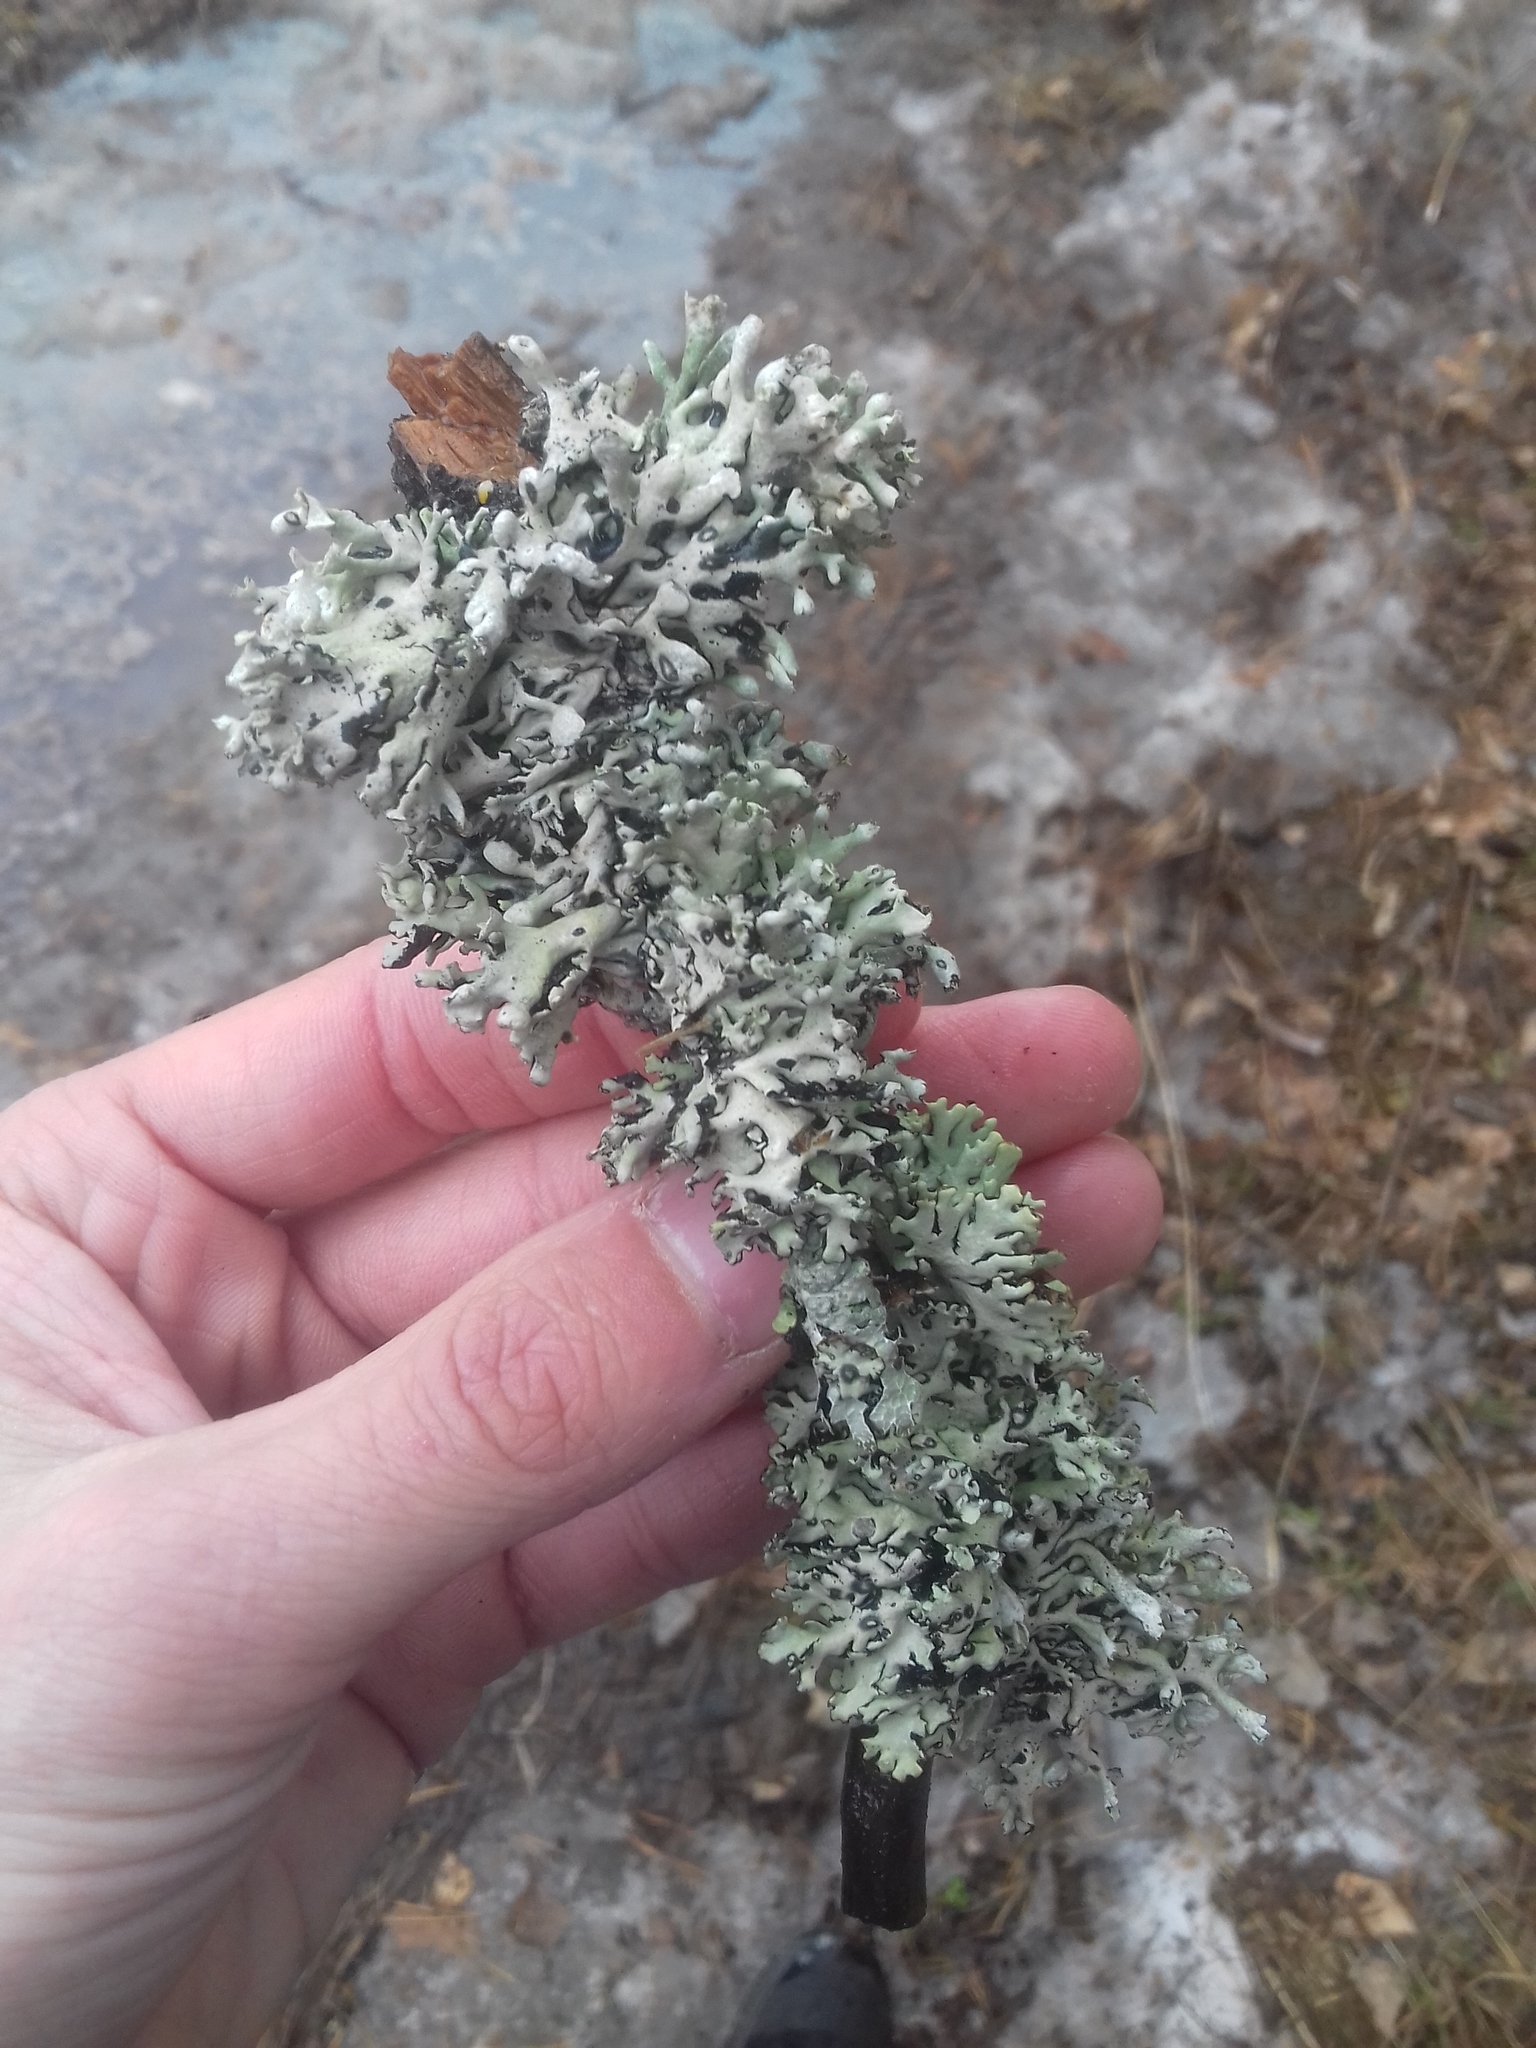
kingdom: Fungi
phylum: Ascomycota
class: Lecanoromycetes
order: Lecanorales
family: Parmeliaceae
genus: Hypogymnia
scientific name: Hypogymnia physodes
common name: Dark crottle
